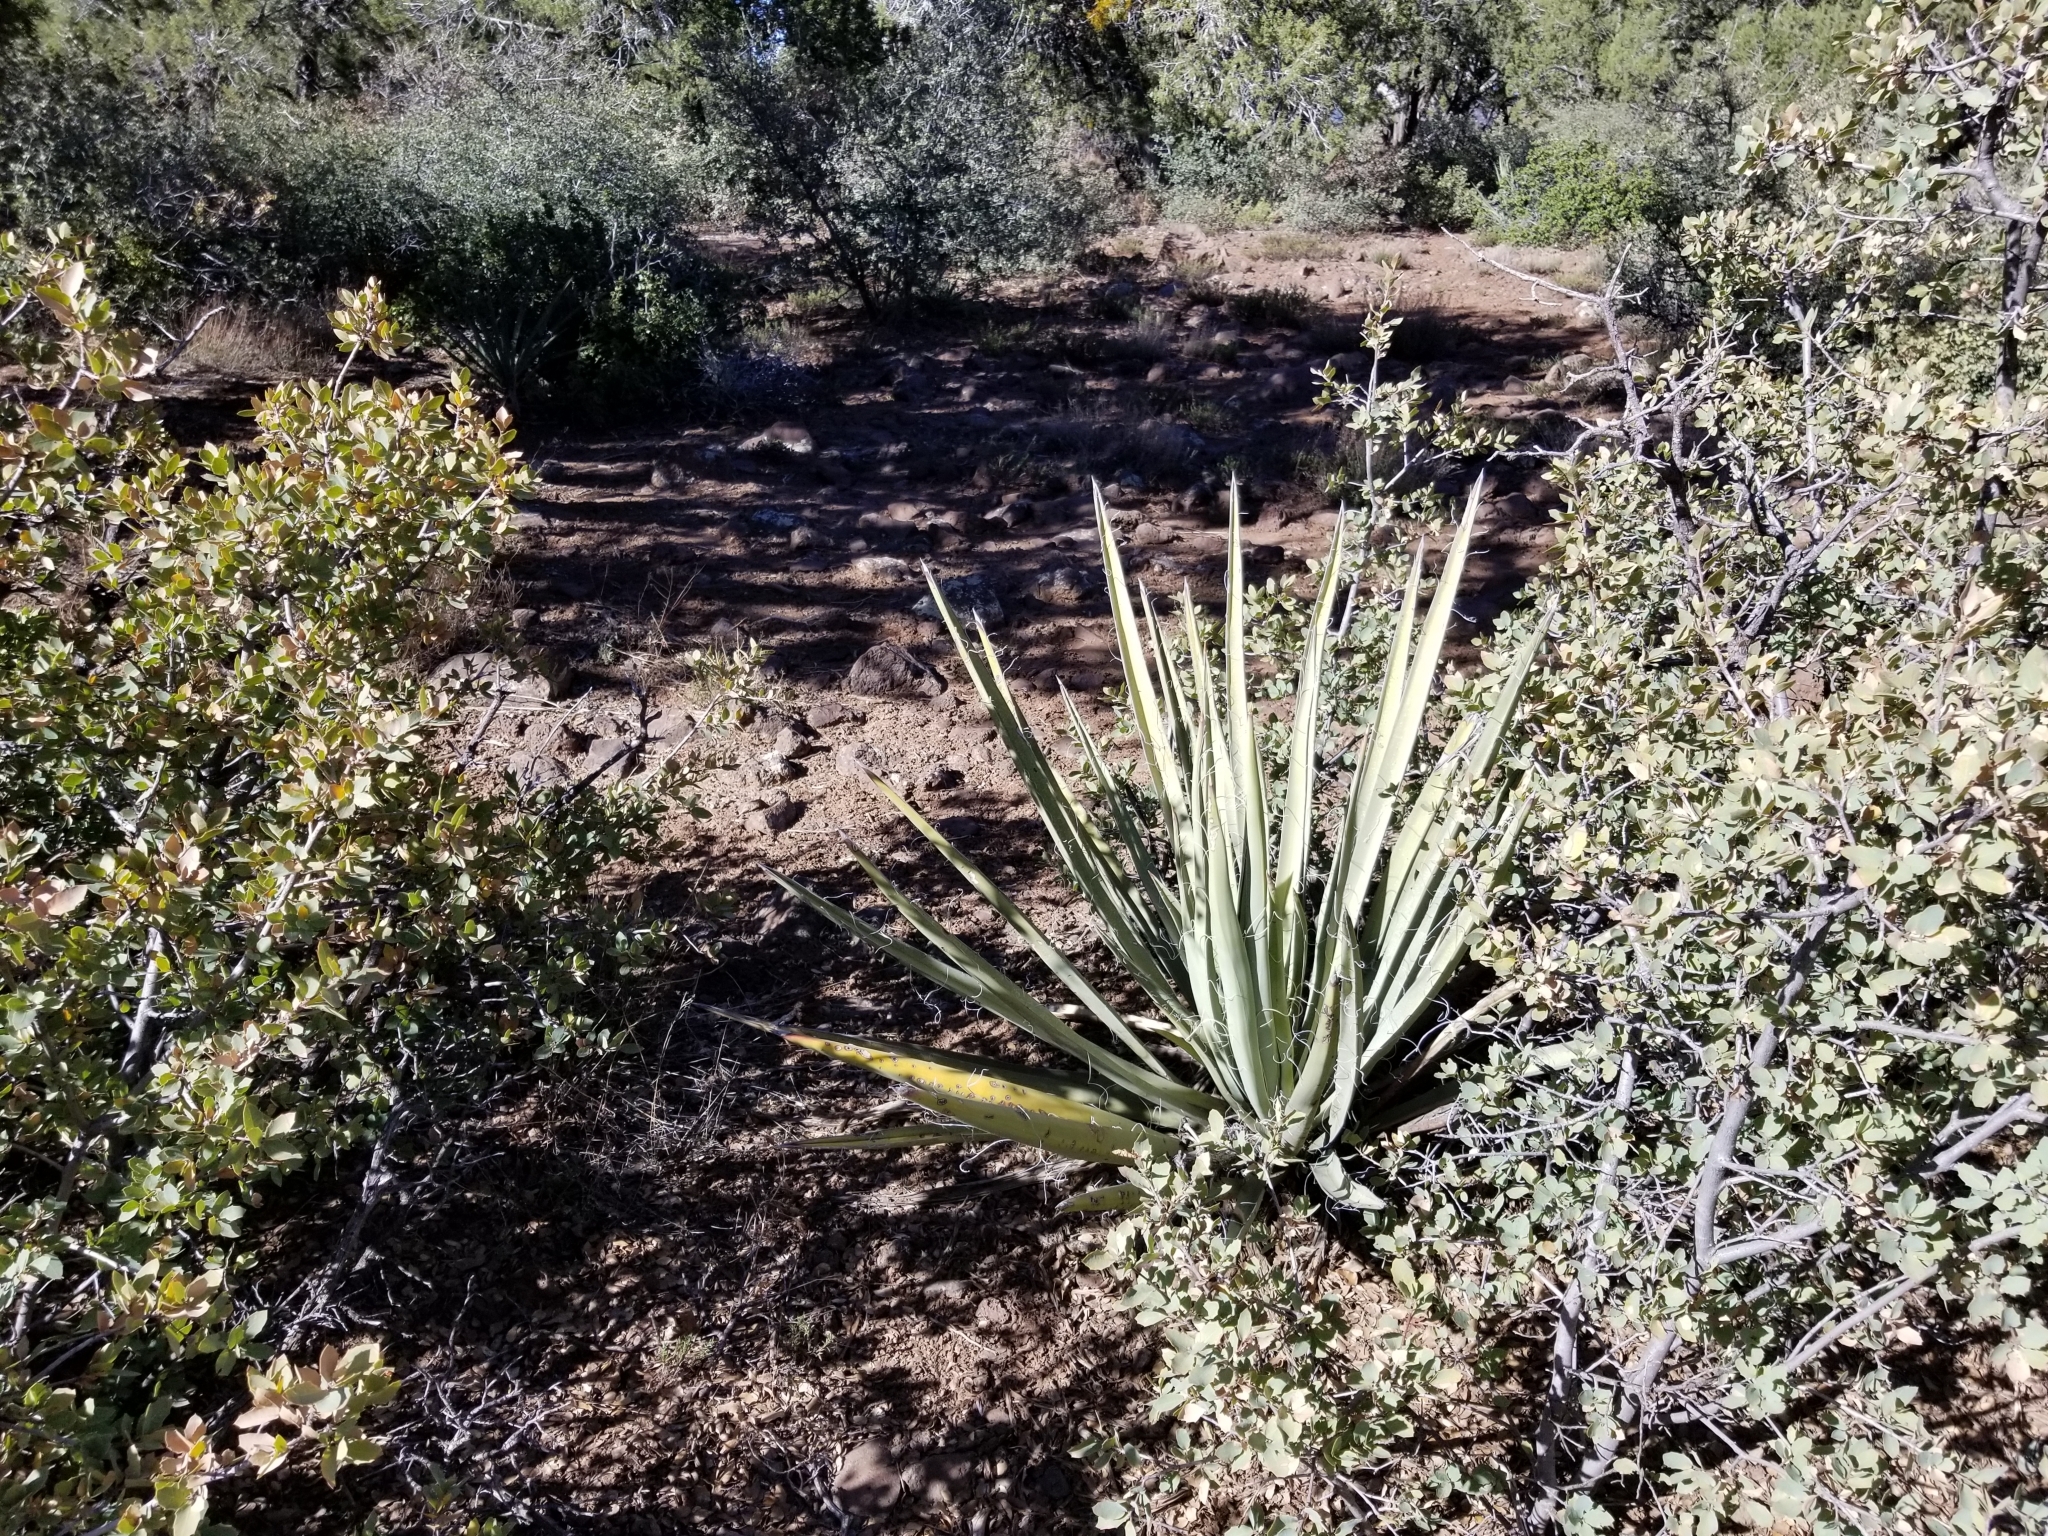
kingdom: Plantae
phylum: Tracheophyta
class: Liliopsida
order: Asparagales
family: Asparagaceae
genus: Yucca
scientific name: Yucca baccata
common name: Banana yucca
